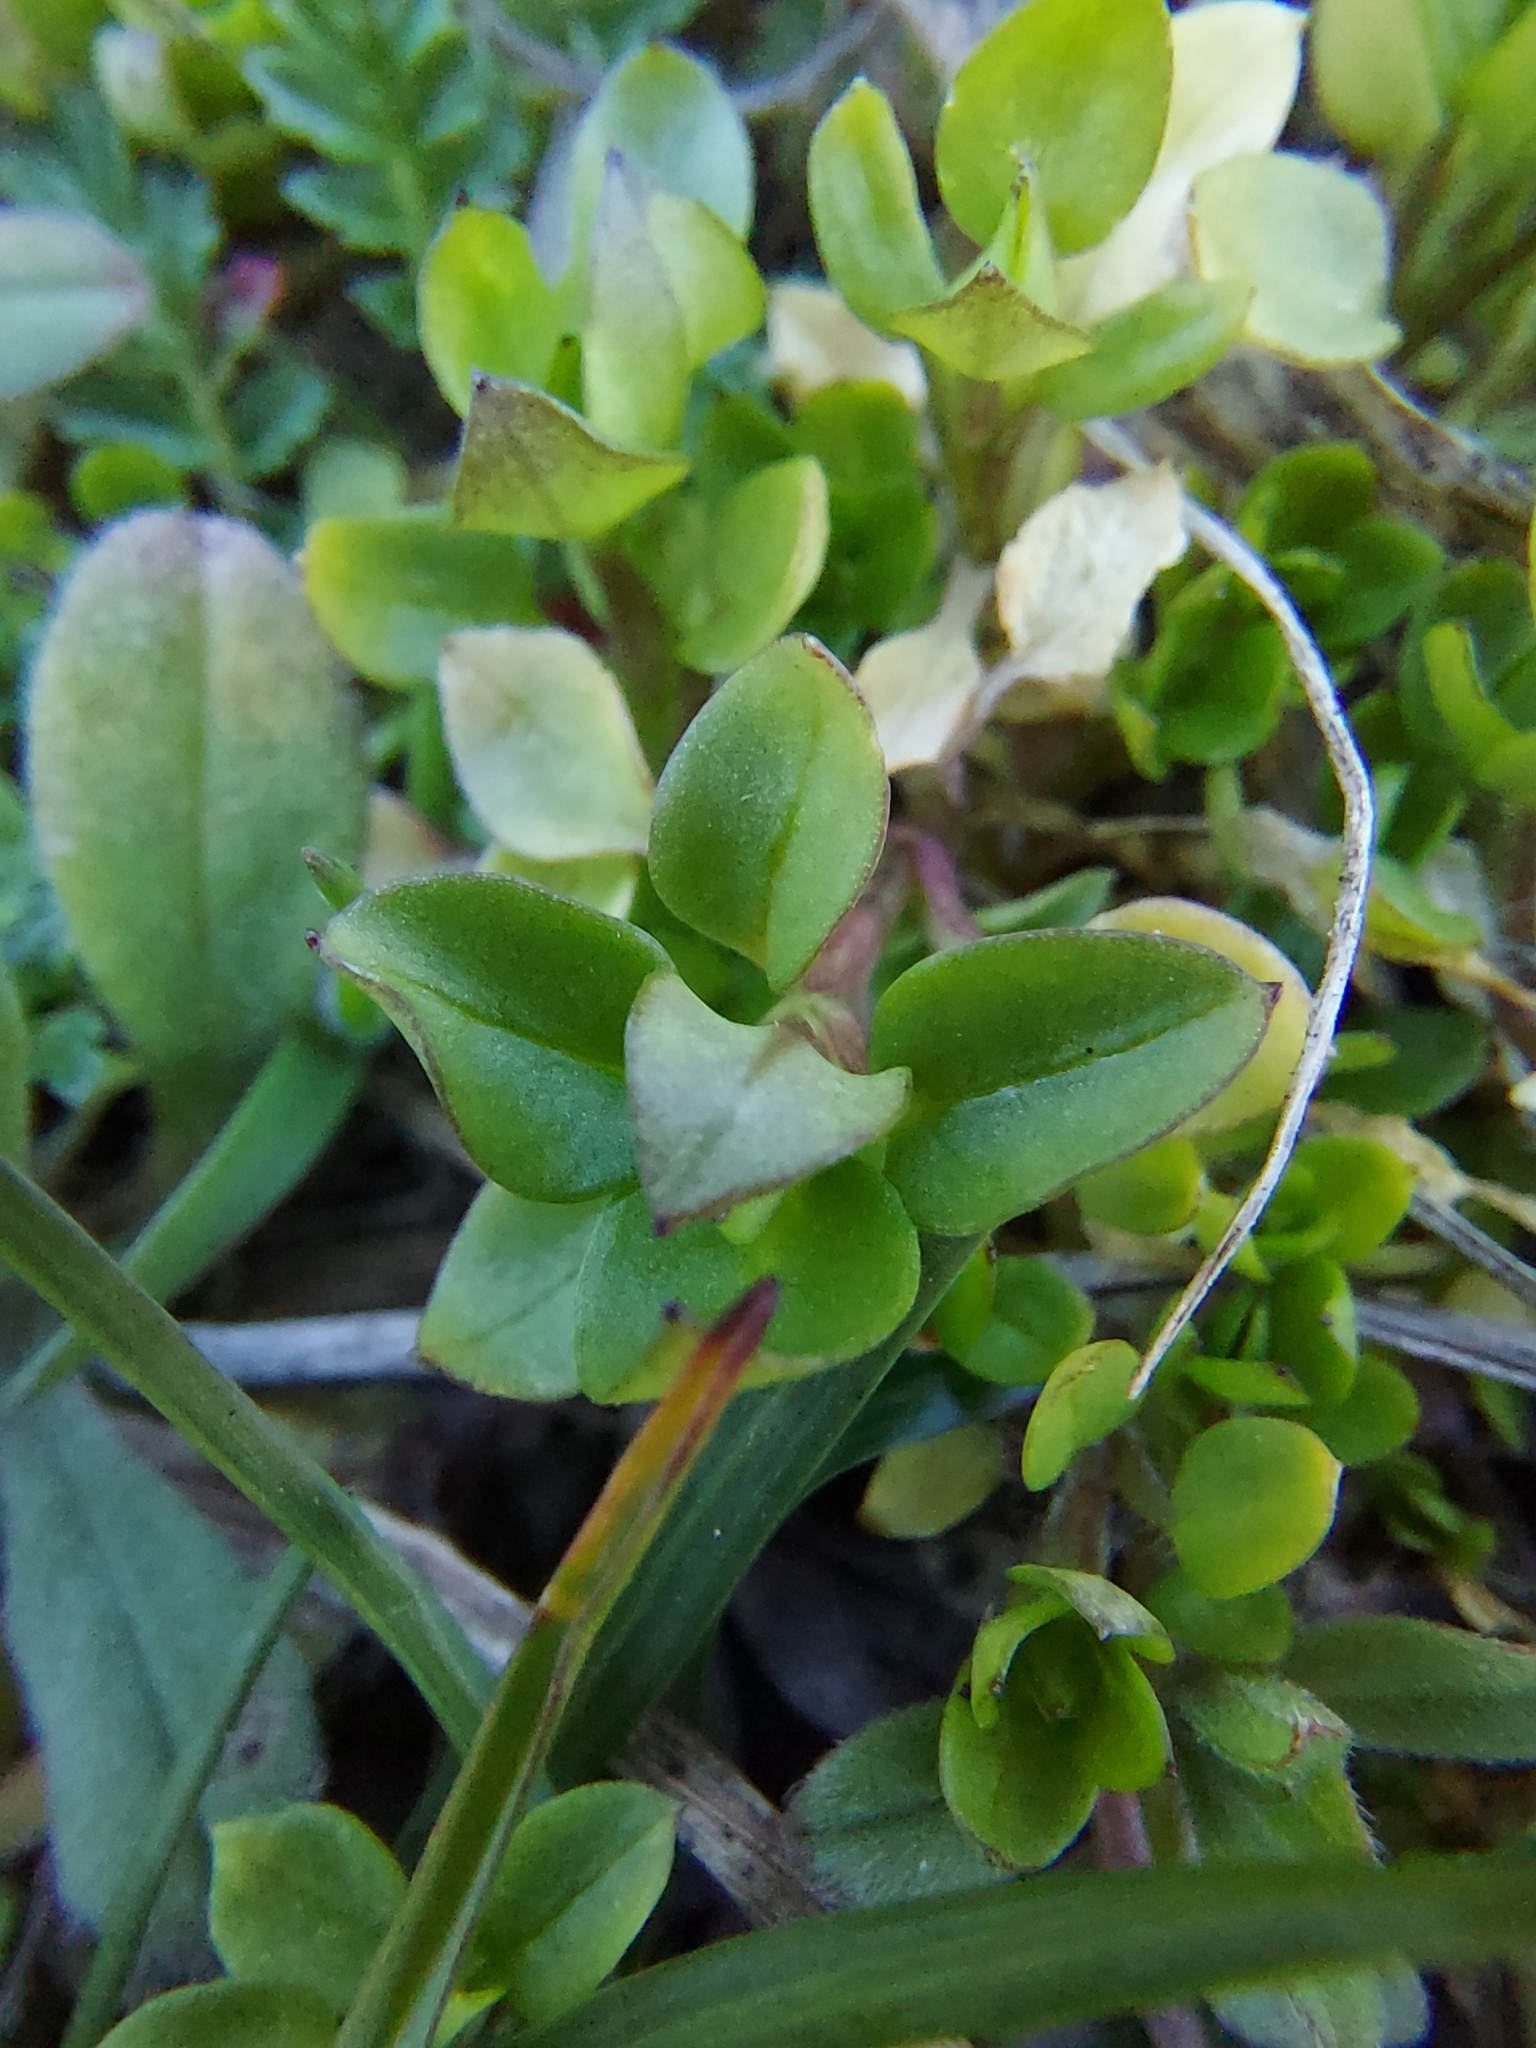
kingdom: Plantae
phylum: Tracheophyta
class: Magnoliopsida
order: Caryophyllales
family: Caryophyllaceae
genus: Stellaria
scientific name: Stellaria media
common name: Common chickweed
